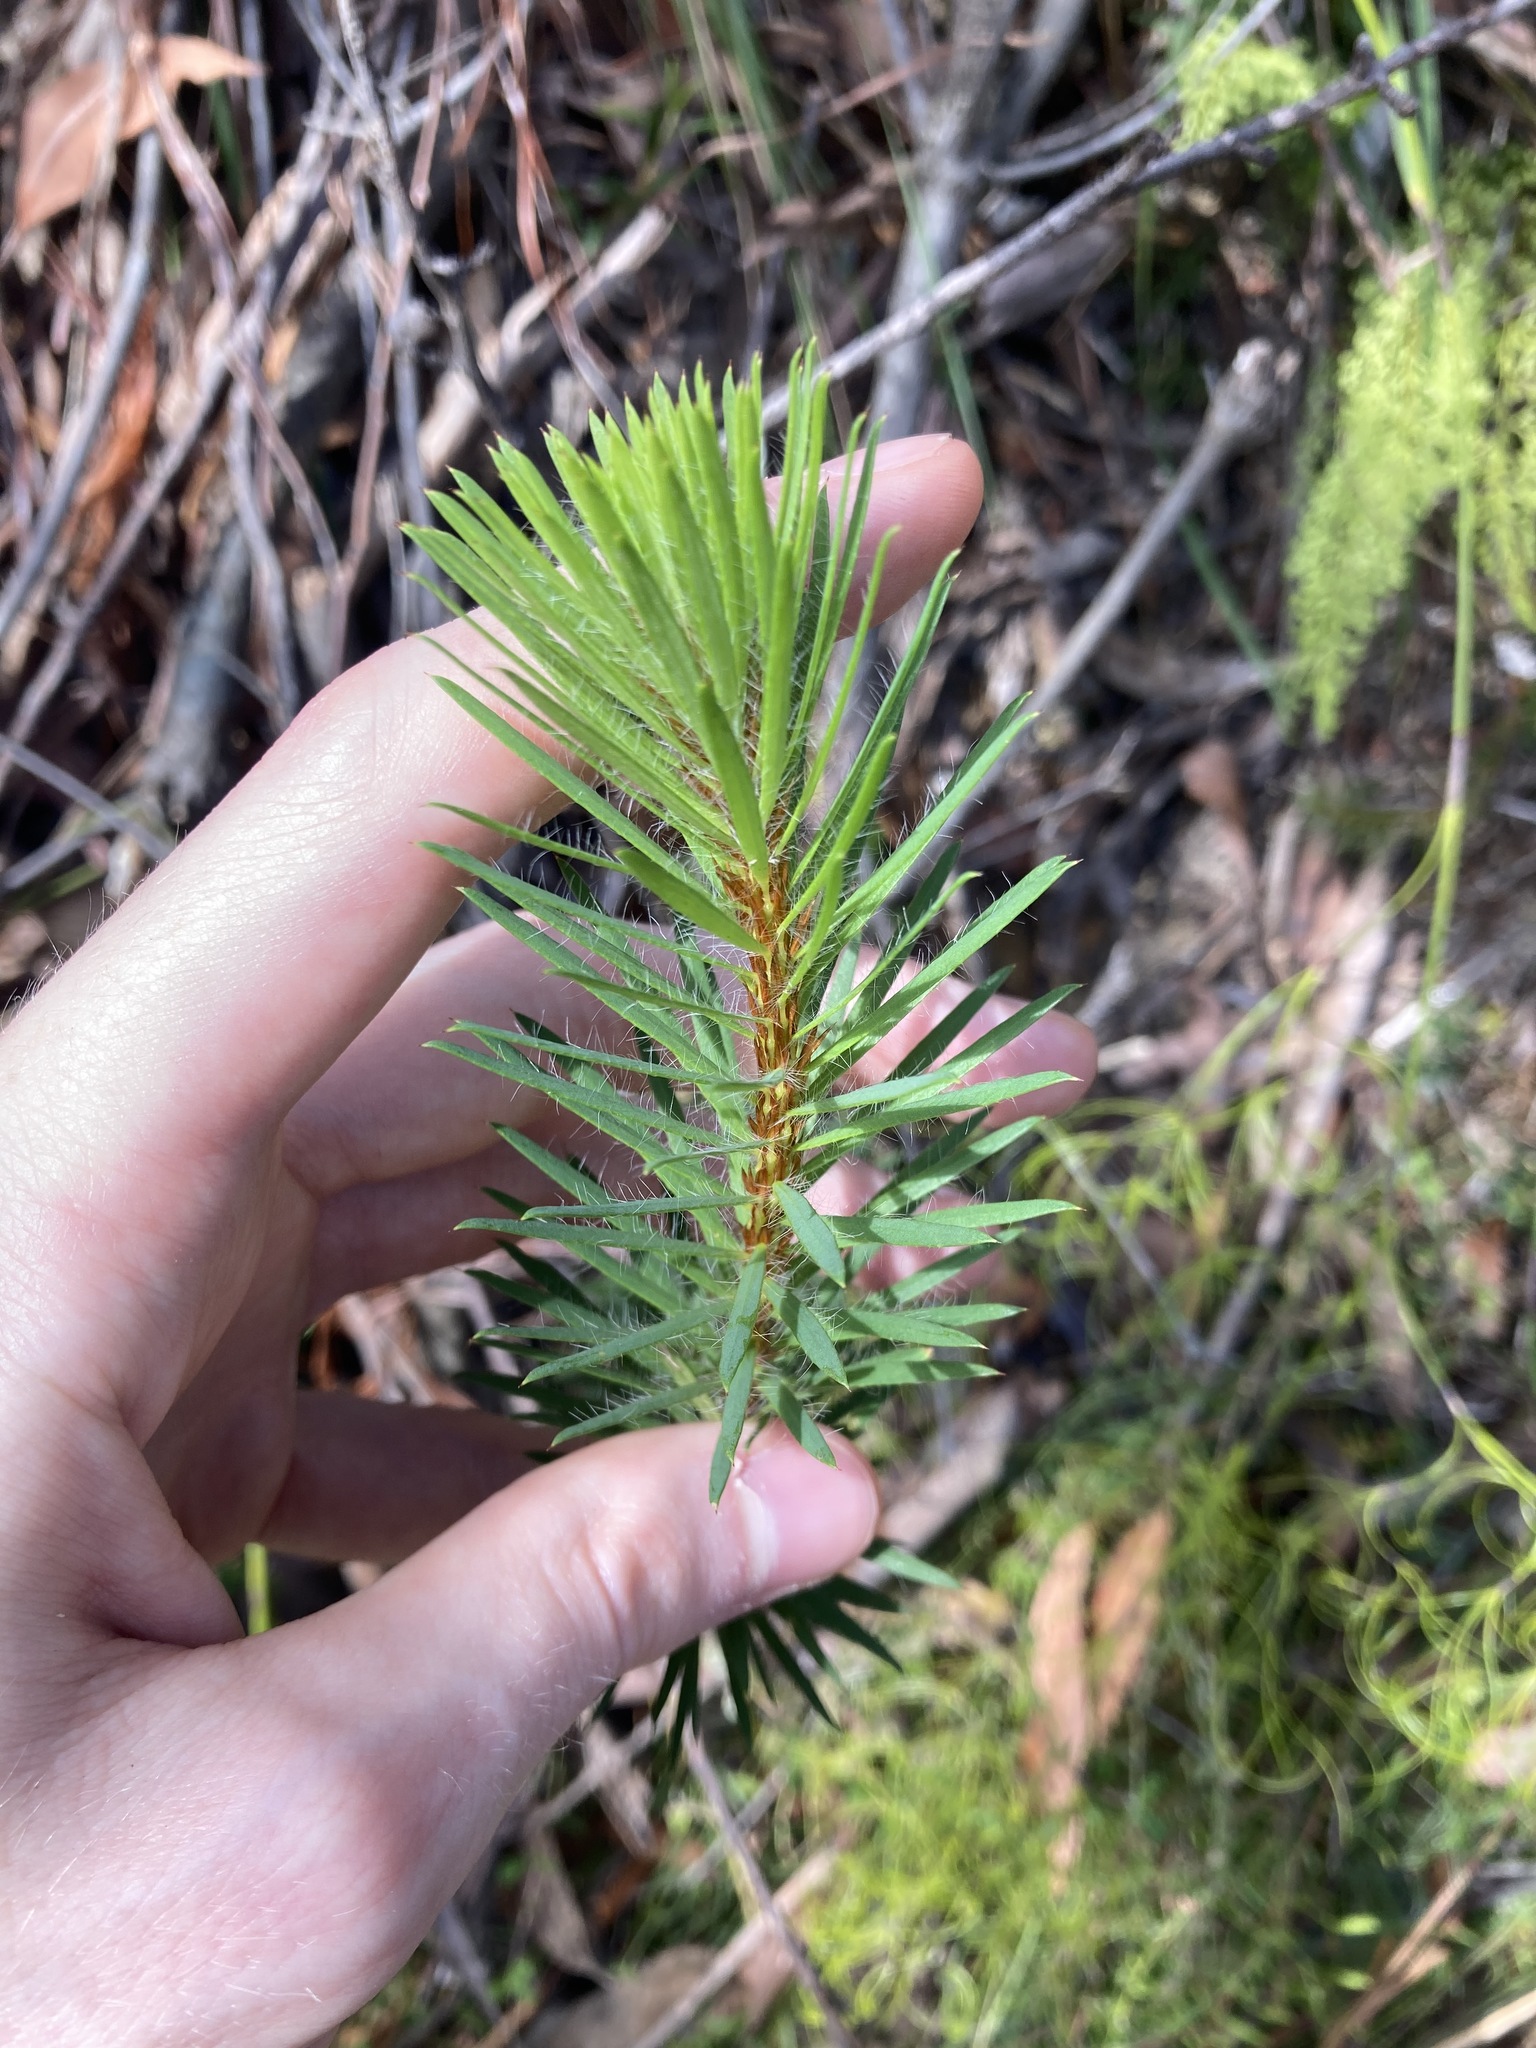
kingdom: Plantae
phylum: Tracheophyta
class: Magnoliopsida
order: Fabales
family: Fabaceae
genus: Pultenaea
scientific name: Pultenaea stipularis
